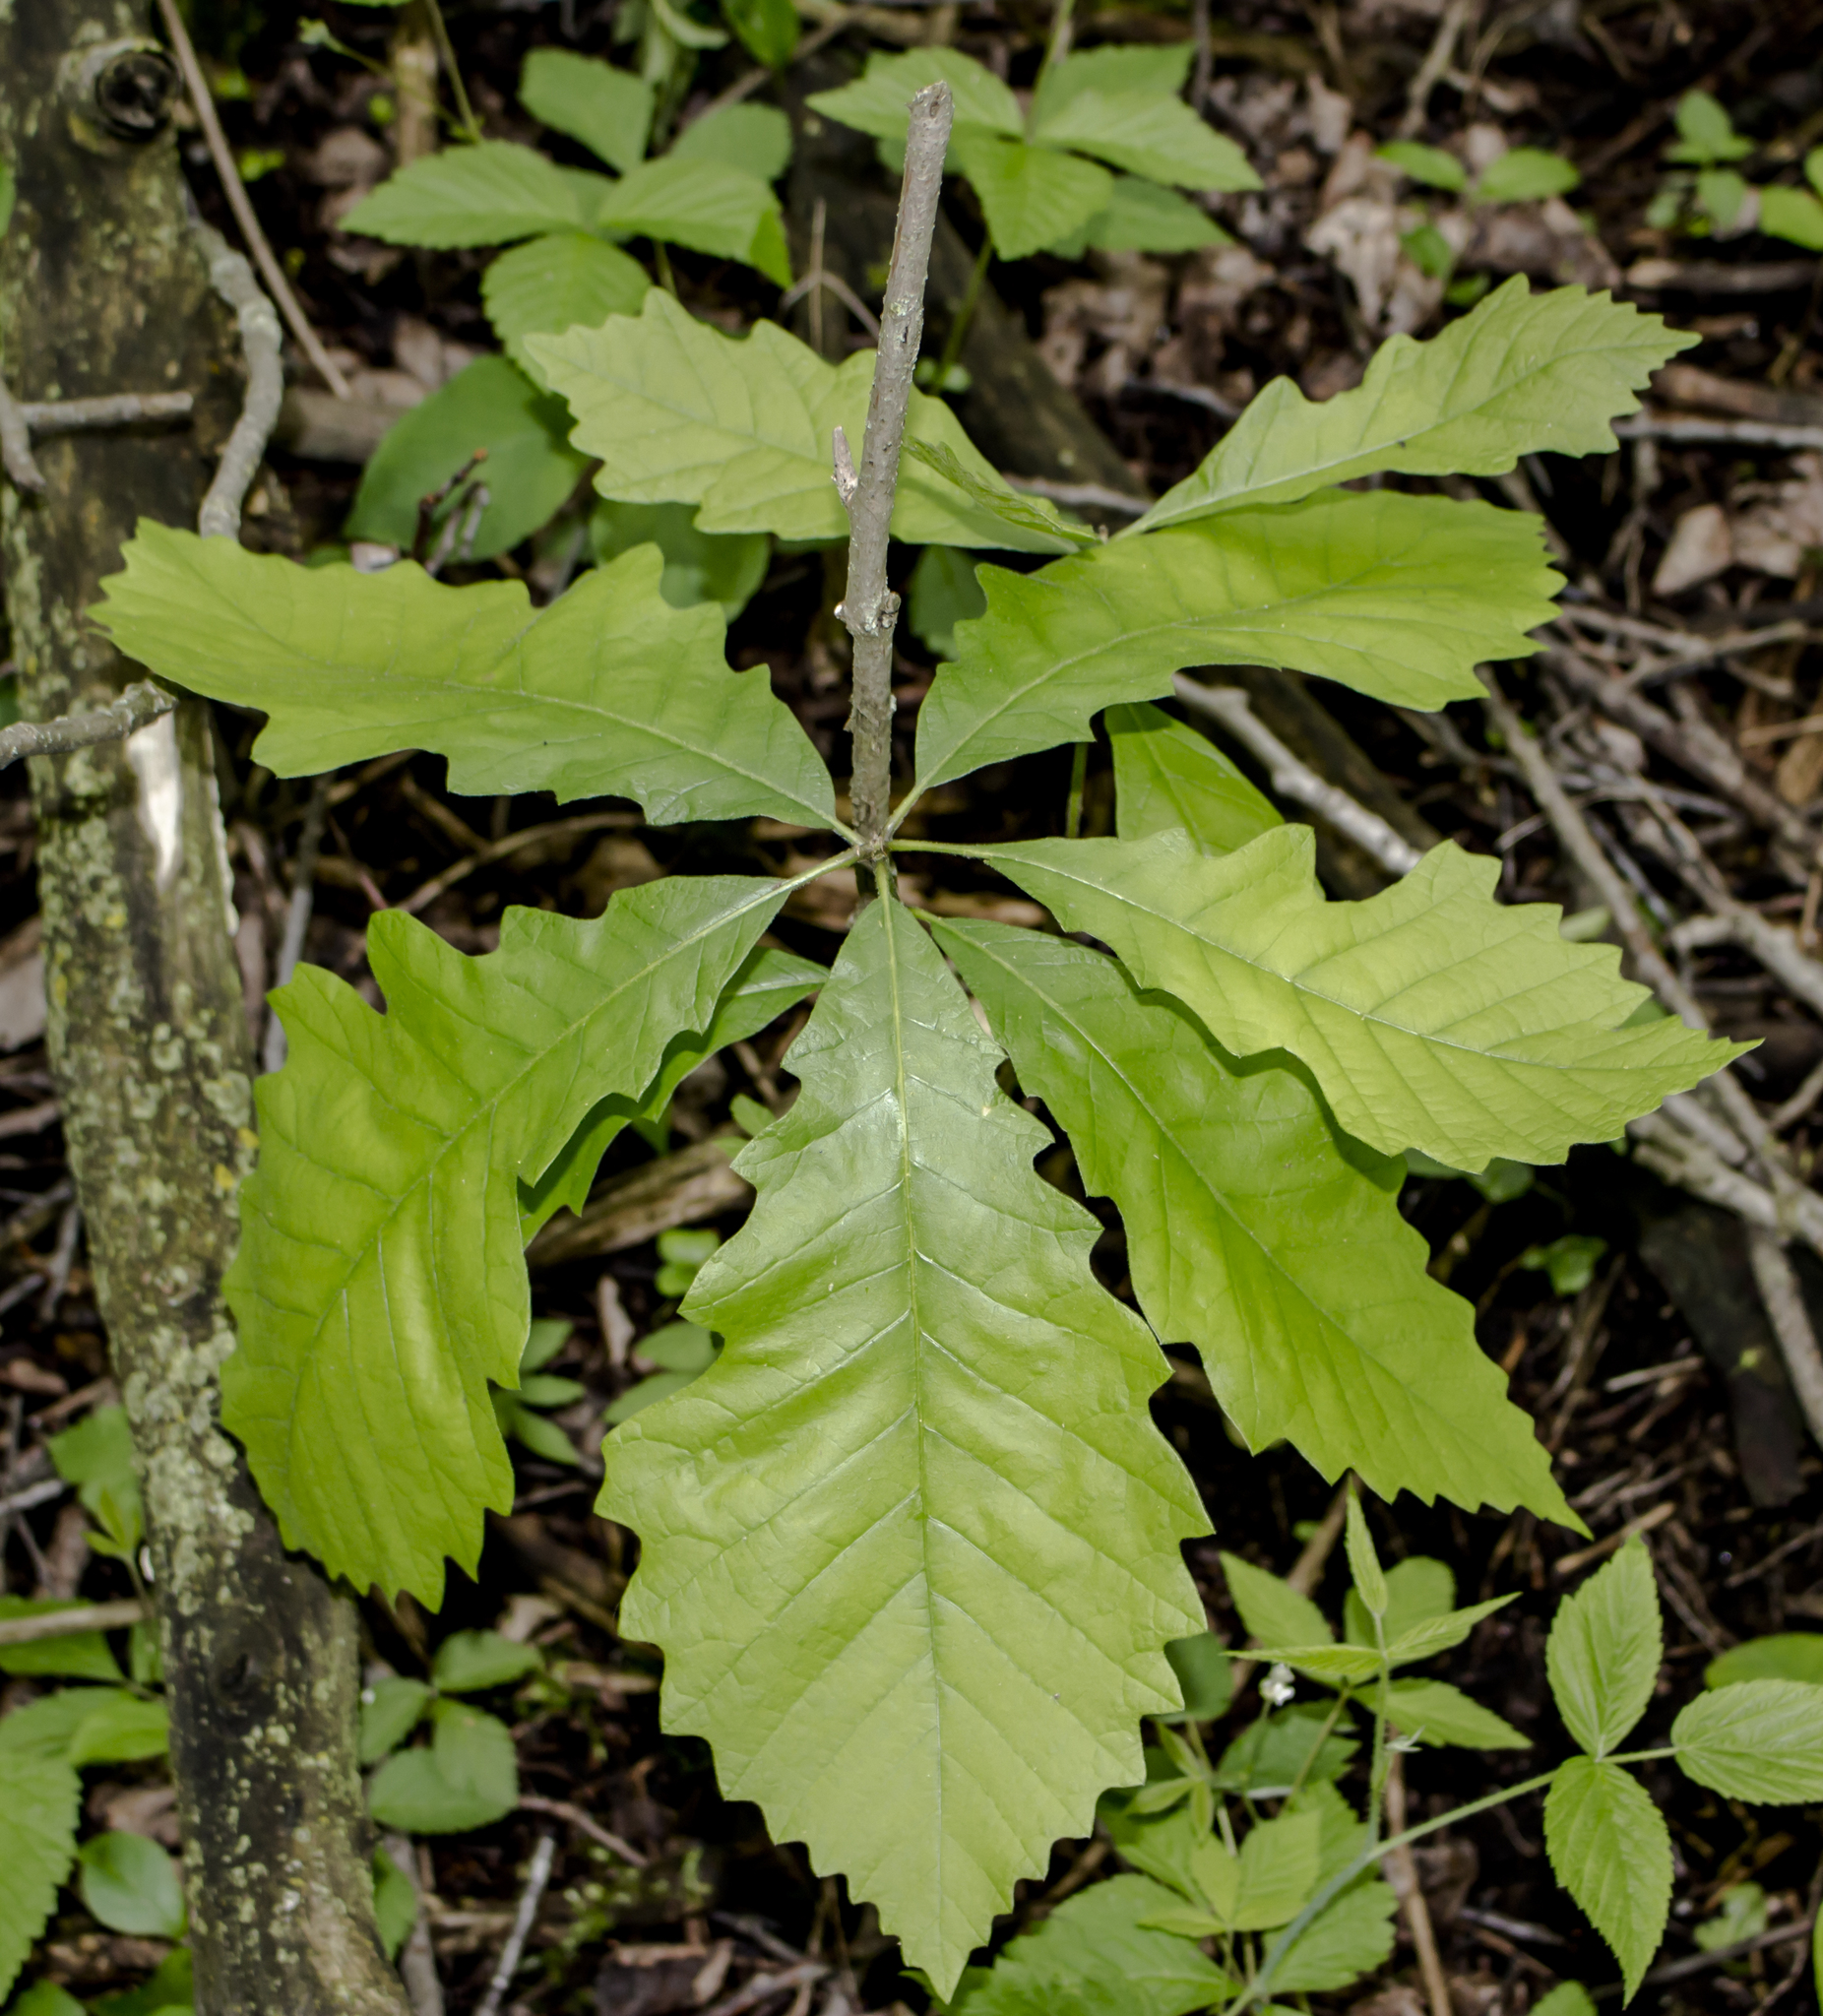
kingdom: Plantae
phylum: Tracheophyta
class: Magnoliopsida
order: Fagales
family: Fagaceae
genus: Quercus
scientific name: Quercus bicolor
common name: Swamp white oak
